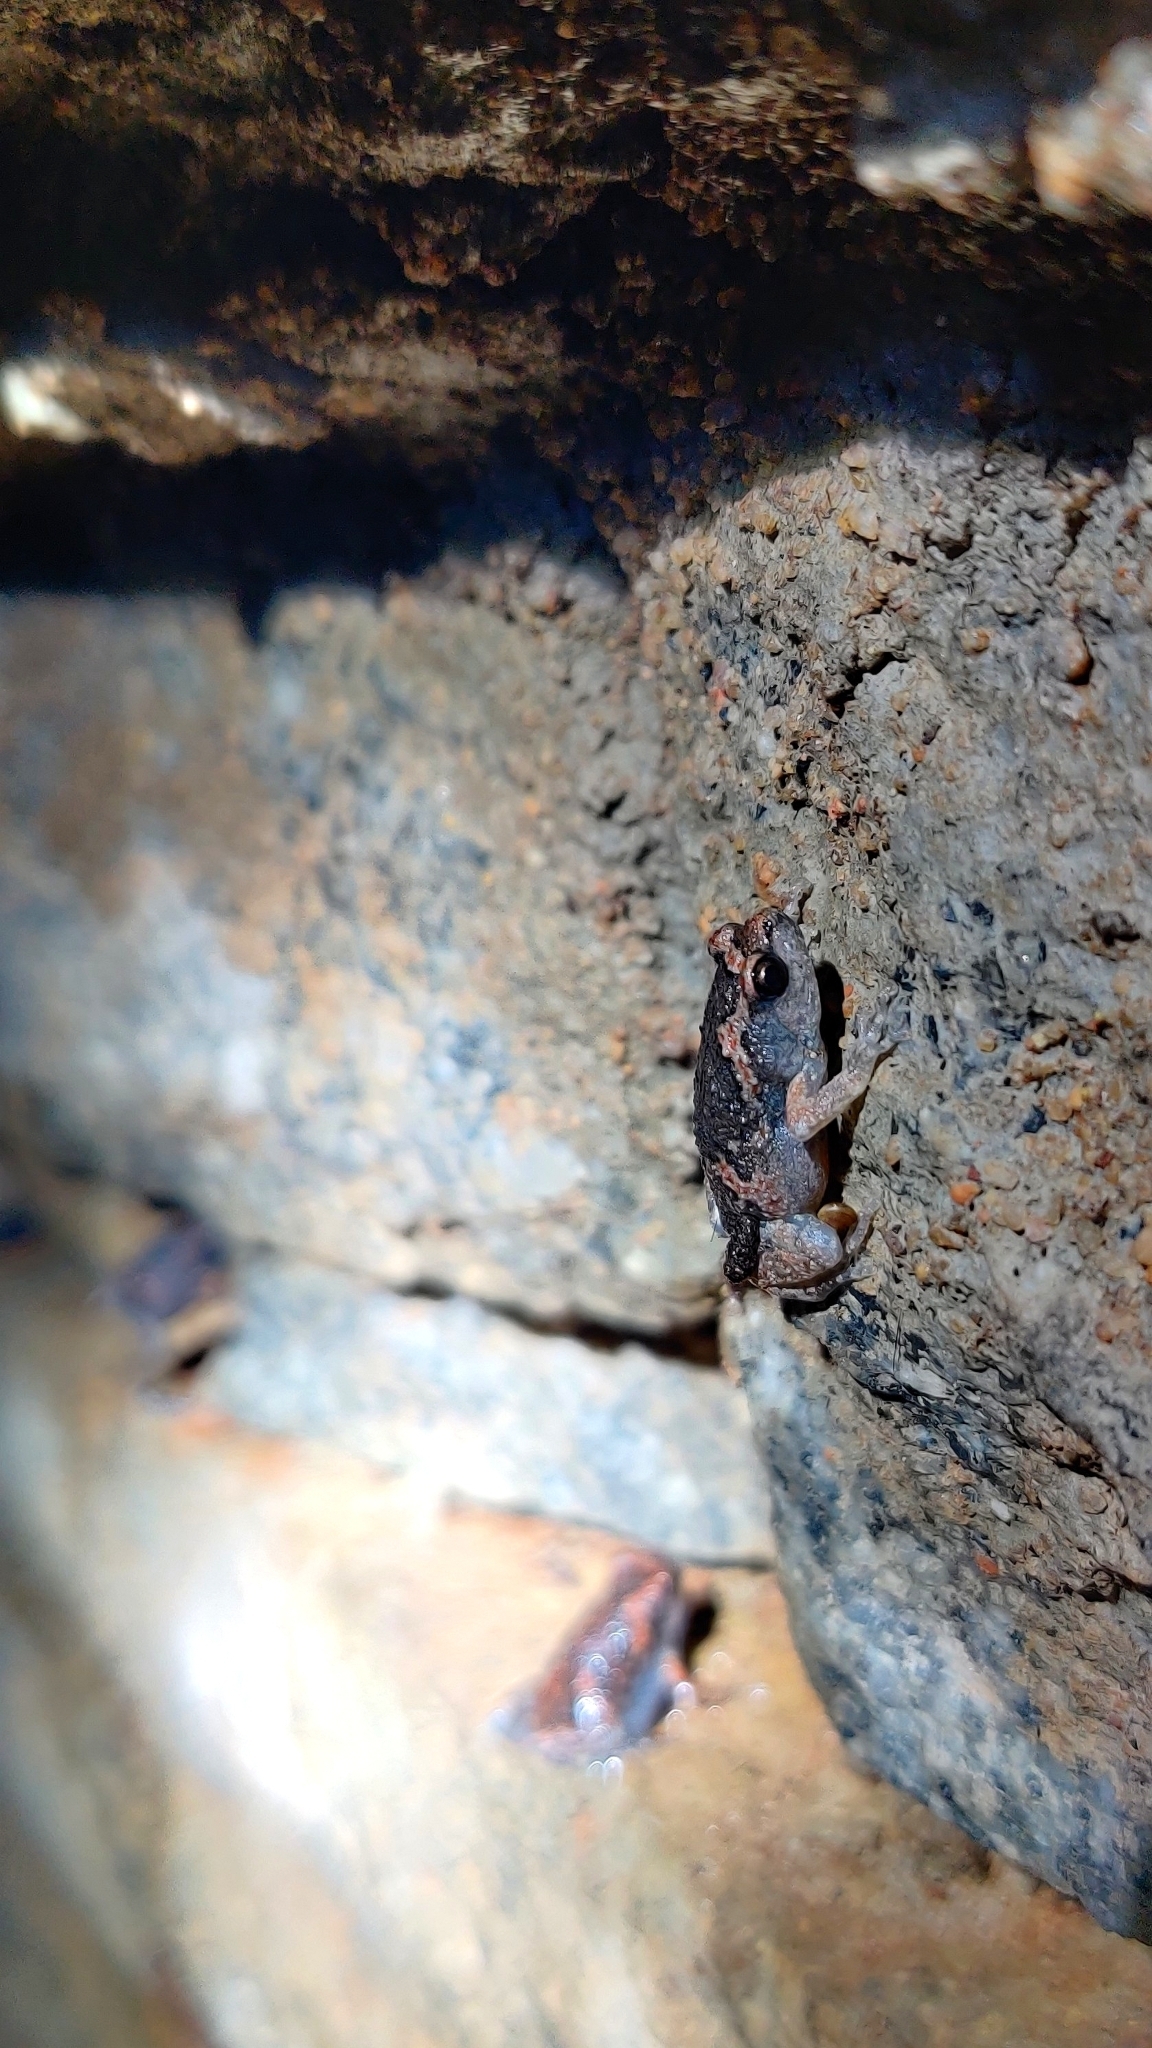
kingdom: Animalia
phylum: Chordata
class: Amphibia
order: Anura
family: Microhylidae
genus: Uperodon
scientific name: Uperodon taprobanicus
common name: Ceylon kaloula
